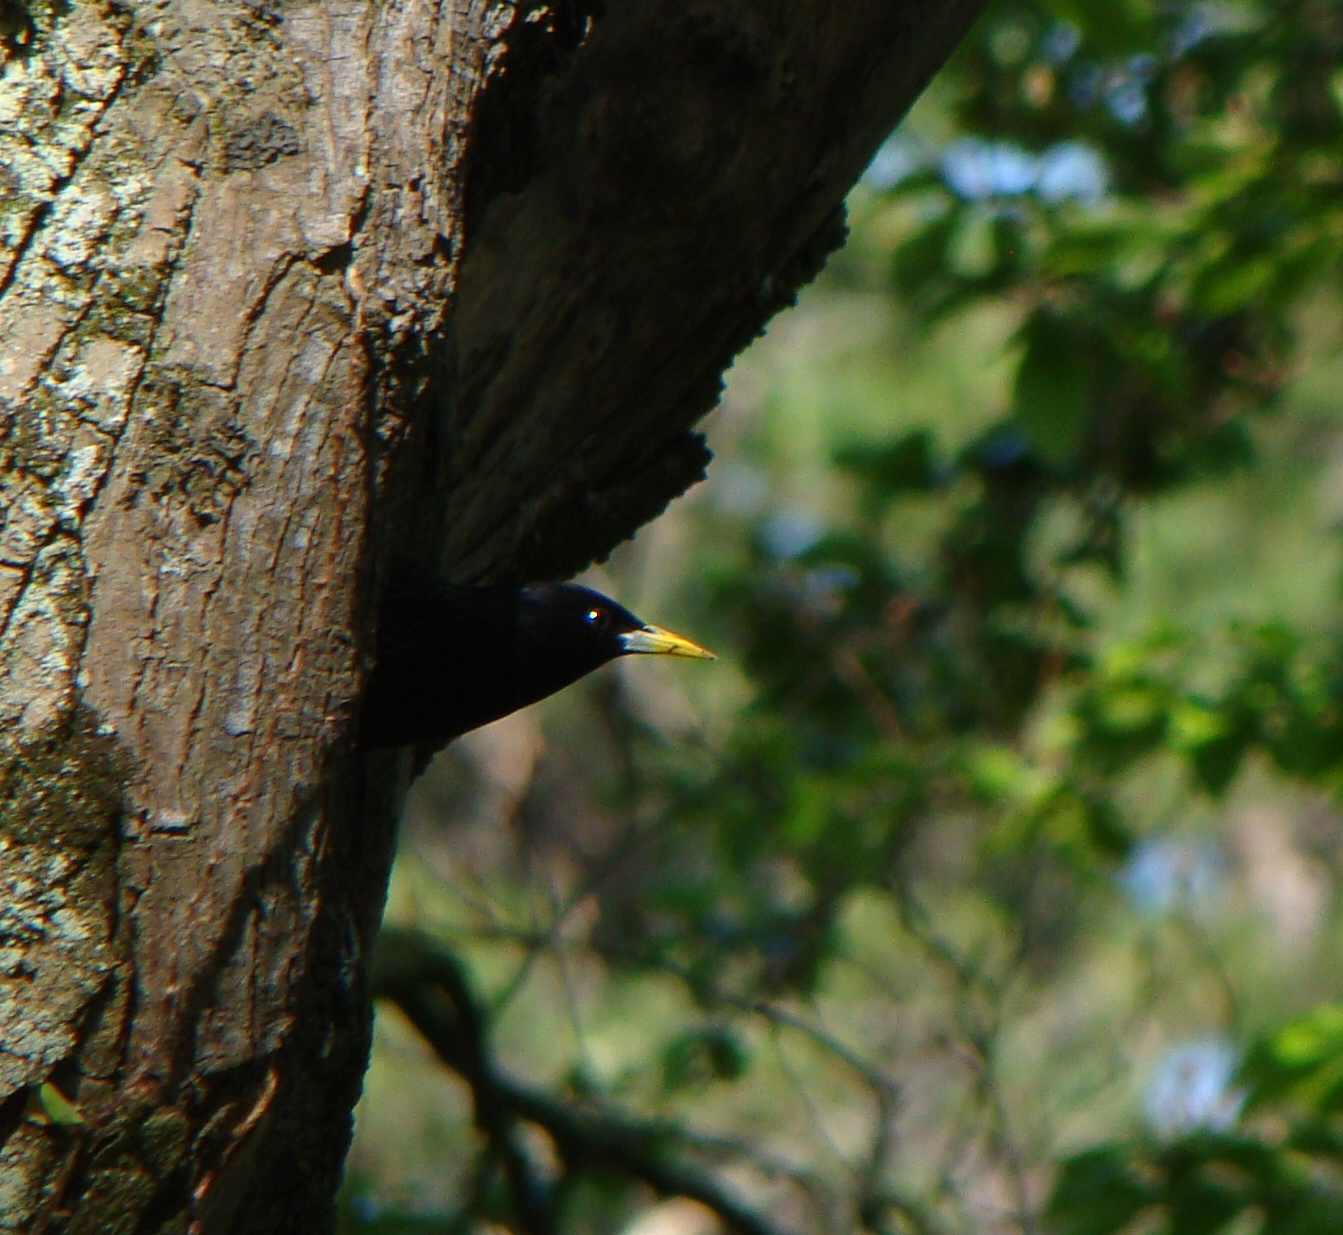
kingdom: Animalia
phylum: Chordata
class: Aves
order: Passeriformes
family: Sturnidae
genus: Sturnus
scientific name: Sturnus vulgaris
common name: Common starling
